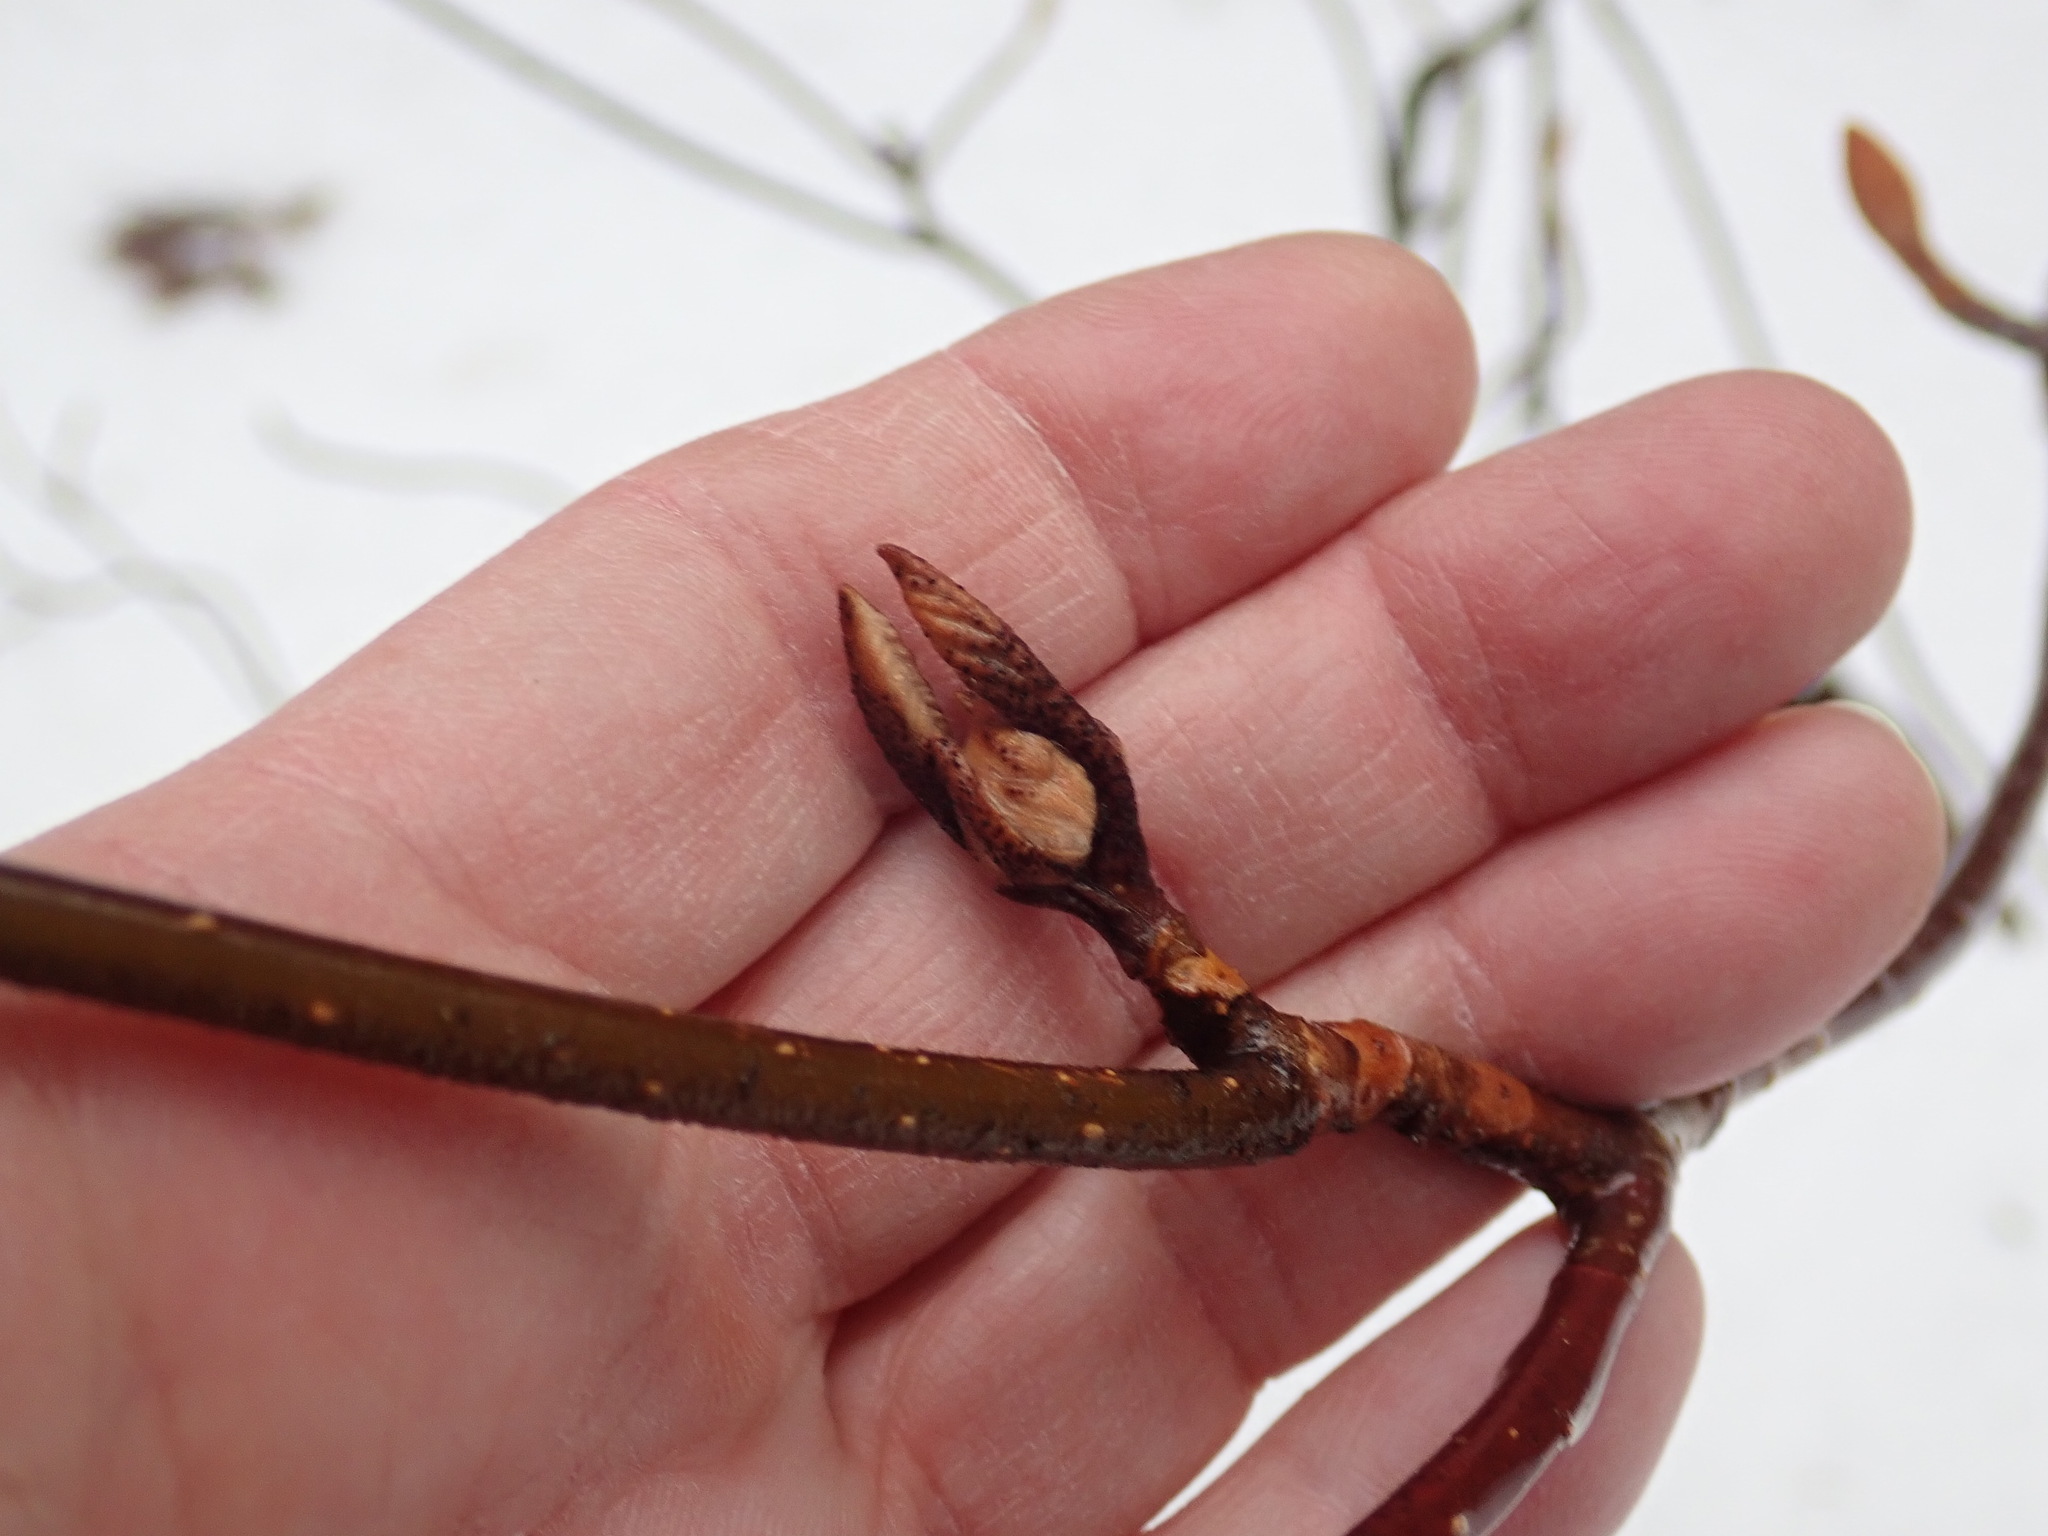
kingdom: Plantae
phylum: Tracheophyta
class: Magnoliopsida
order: Dipsacales
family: Viburnaceae
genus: Viburnum
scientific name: Viburnum lantanoides
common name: Hobblebush
